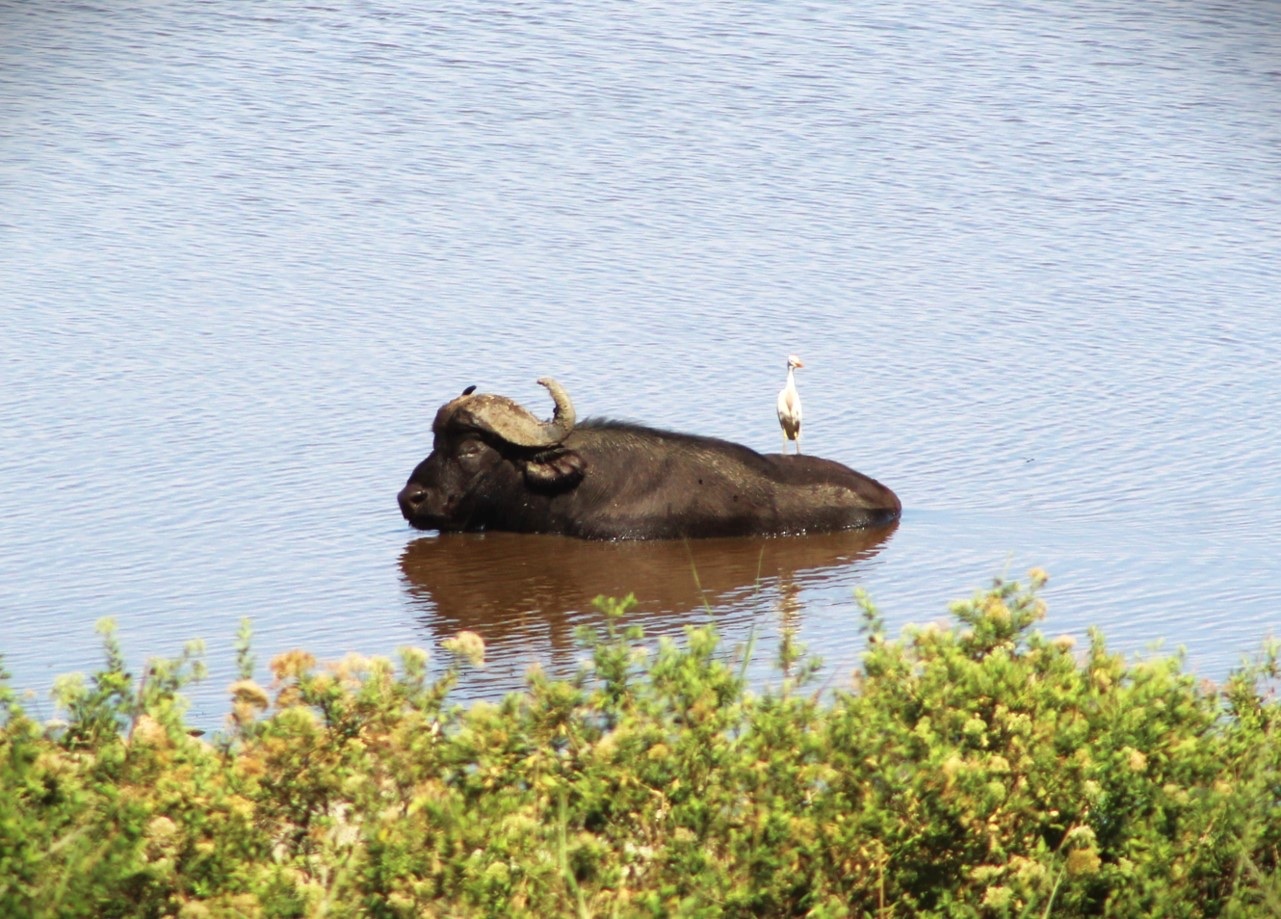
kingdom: Animalia
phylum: Chordata
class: Mammalia
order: Artiodactyla
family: Bovidae
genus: Syncerus
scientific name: Syncerus caffer
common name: African buffalo
